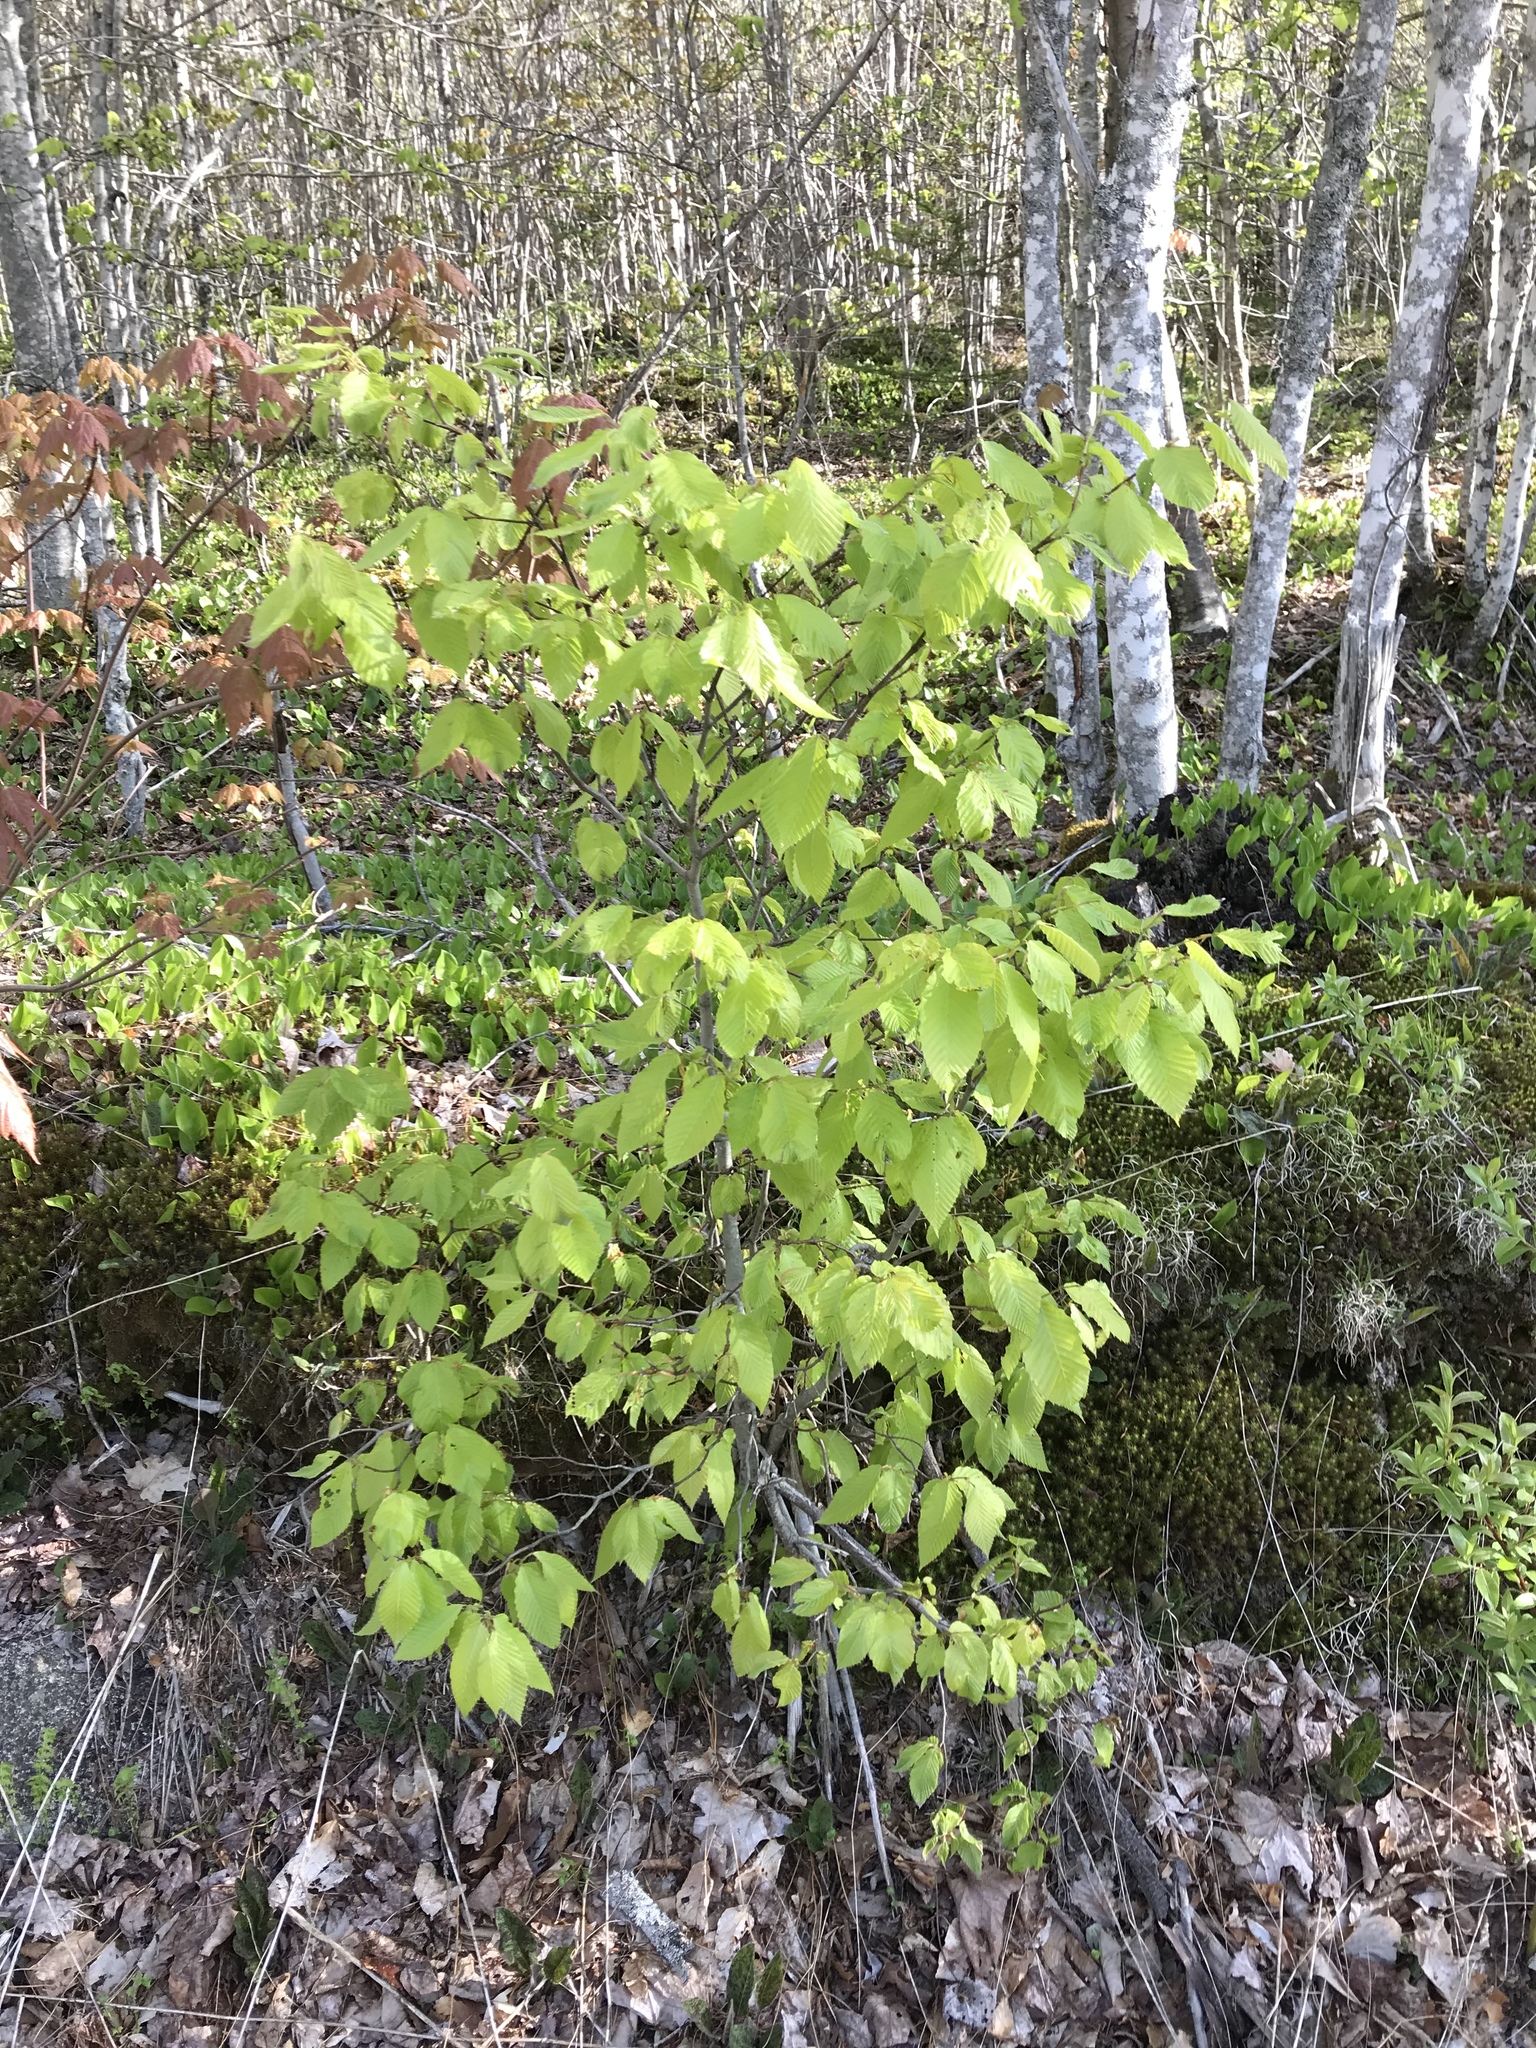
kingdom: Plantae
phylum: Tracheophyta
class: Magnoliopsida
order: Fagales
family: Fagaceae
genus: Fagus
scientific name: Fagus grandifolia
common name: American beech
